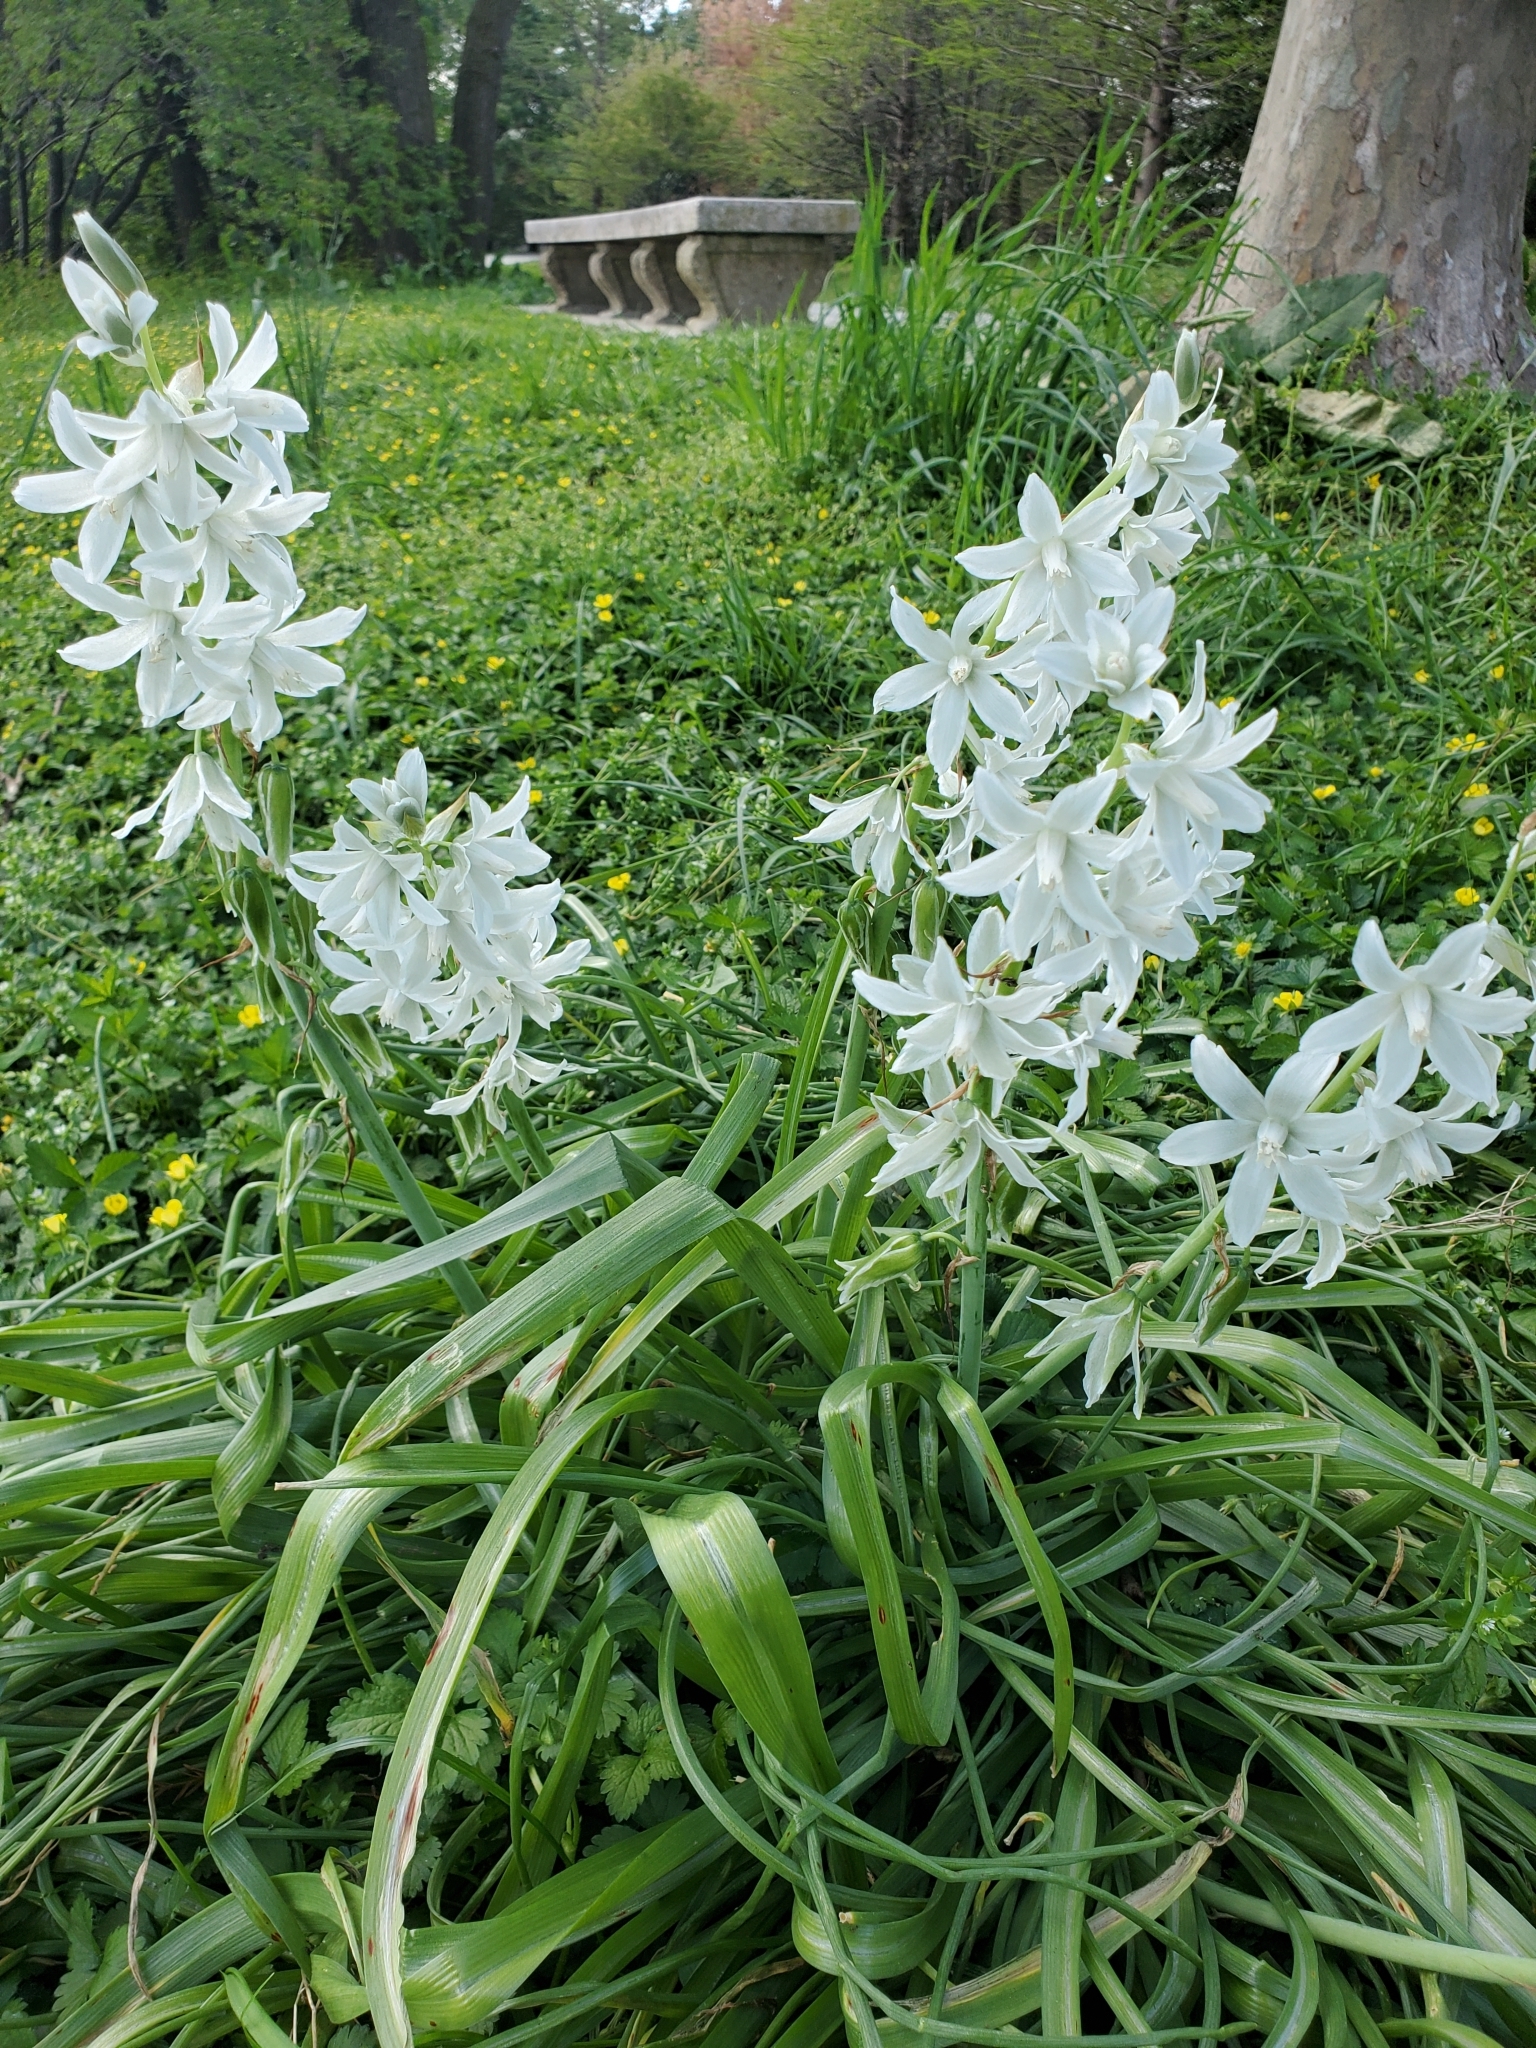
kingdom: Plantae
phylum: Tracheophyta
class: Liliopsida
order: Asparagales
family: Asparagaceae
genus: Ornithogalum
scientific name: Ornithogalum nutans
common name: Drooping star-of-bethlehem
